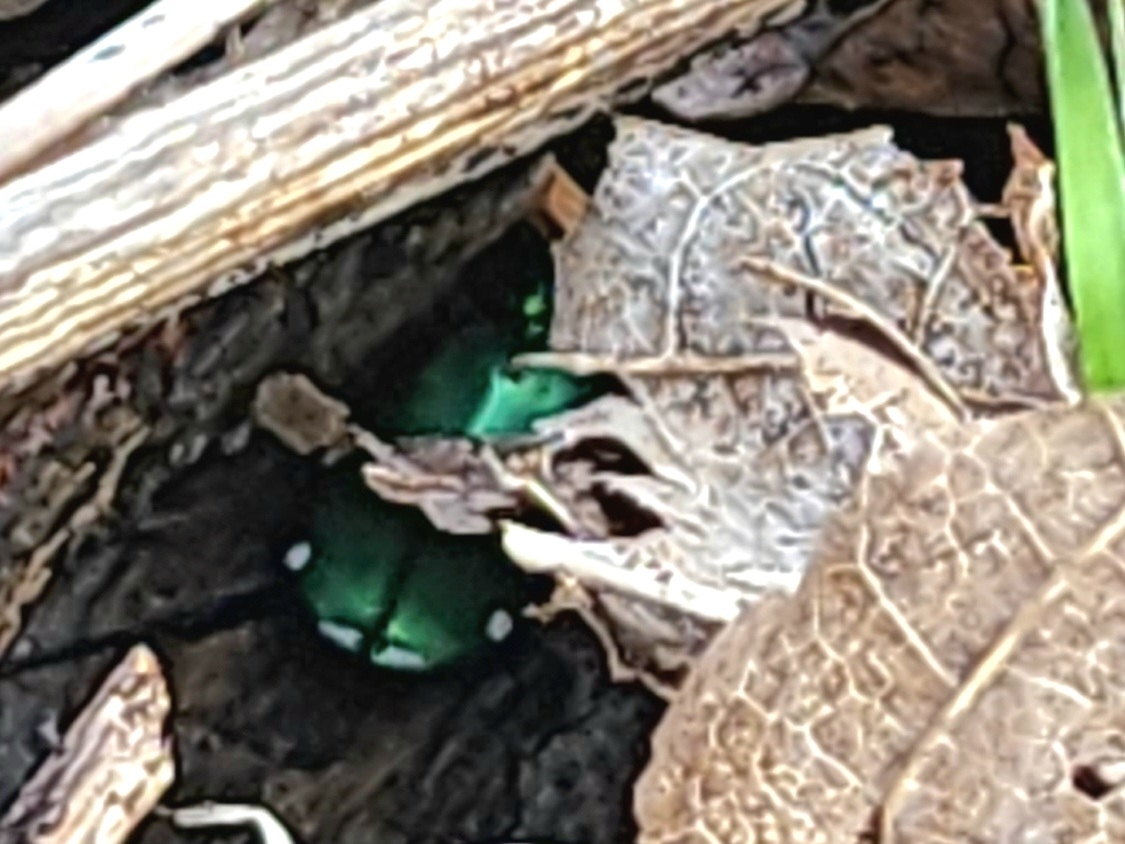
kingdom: Animalia
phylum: Arthropoda
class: Insecta
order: Coleoptera
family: Carabidae
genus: Cicindela
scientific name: Cicindela sexguttata
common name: Six-spotted tiger beetle
